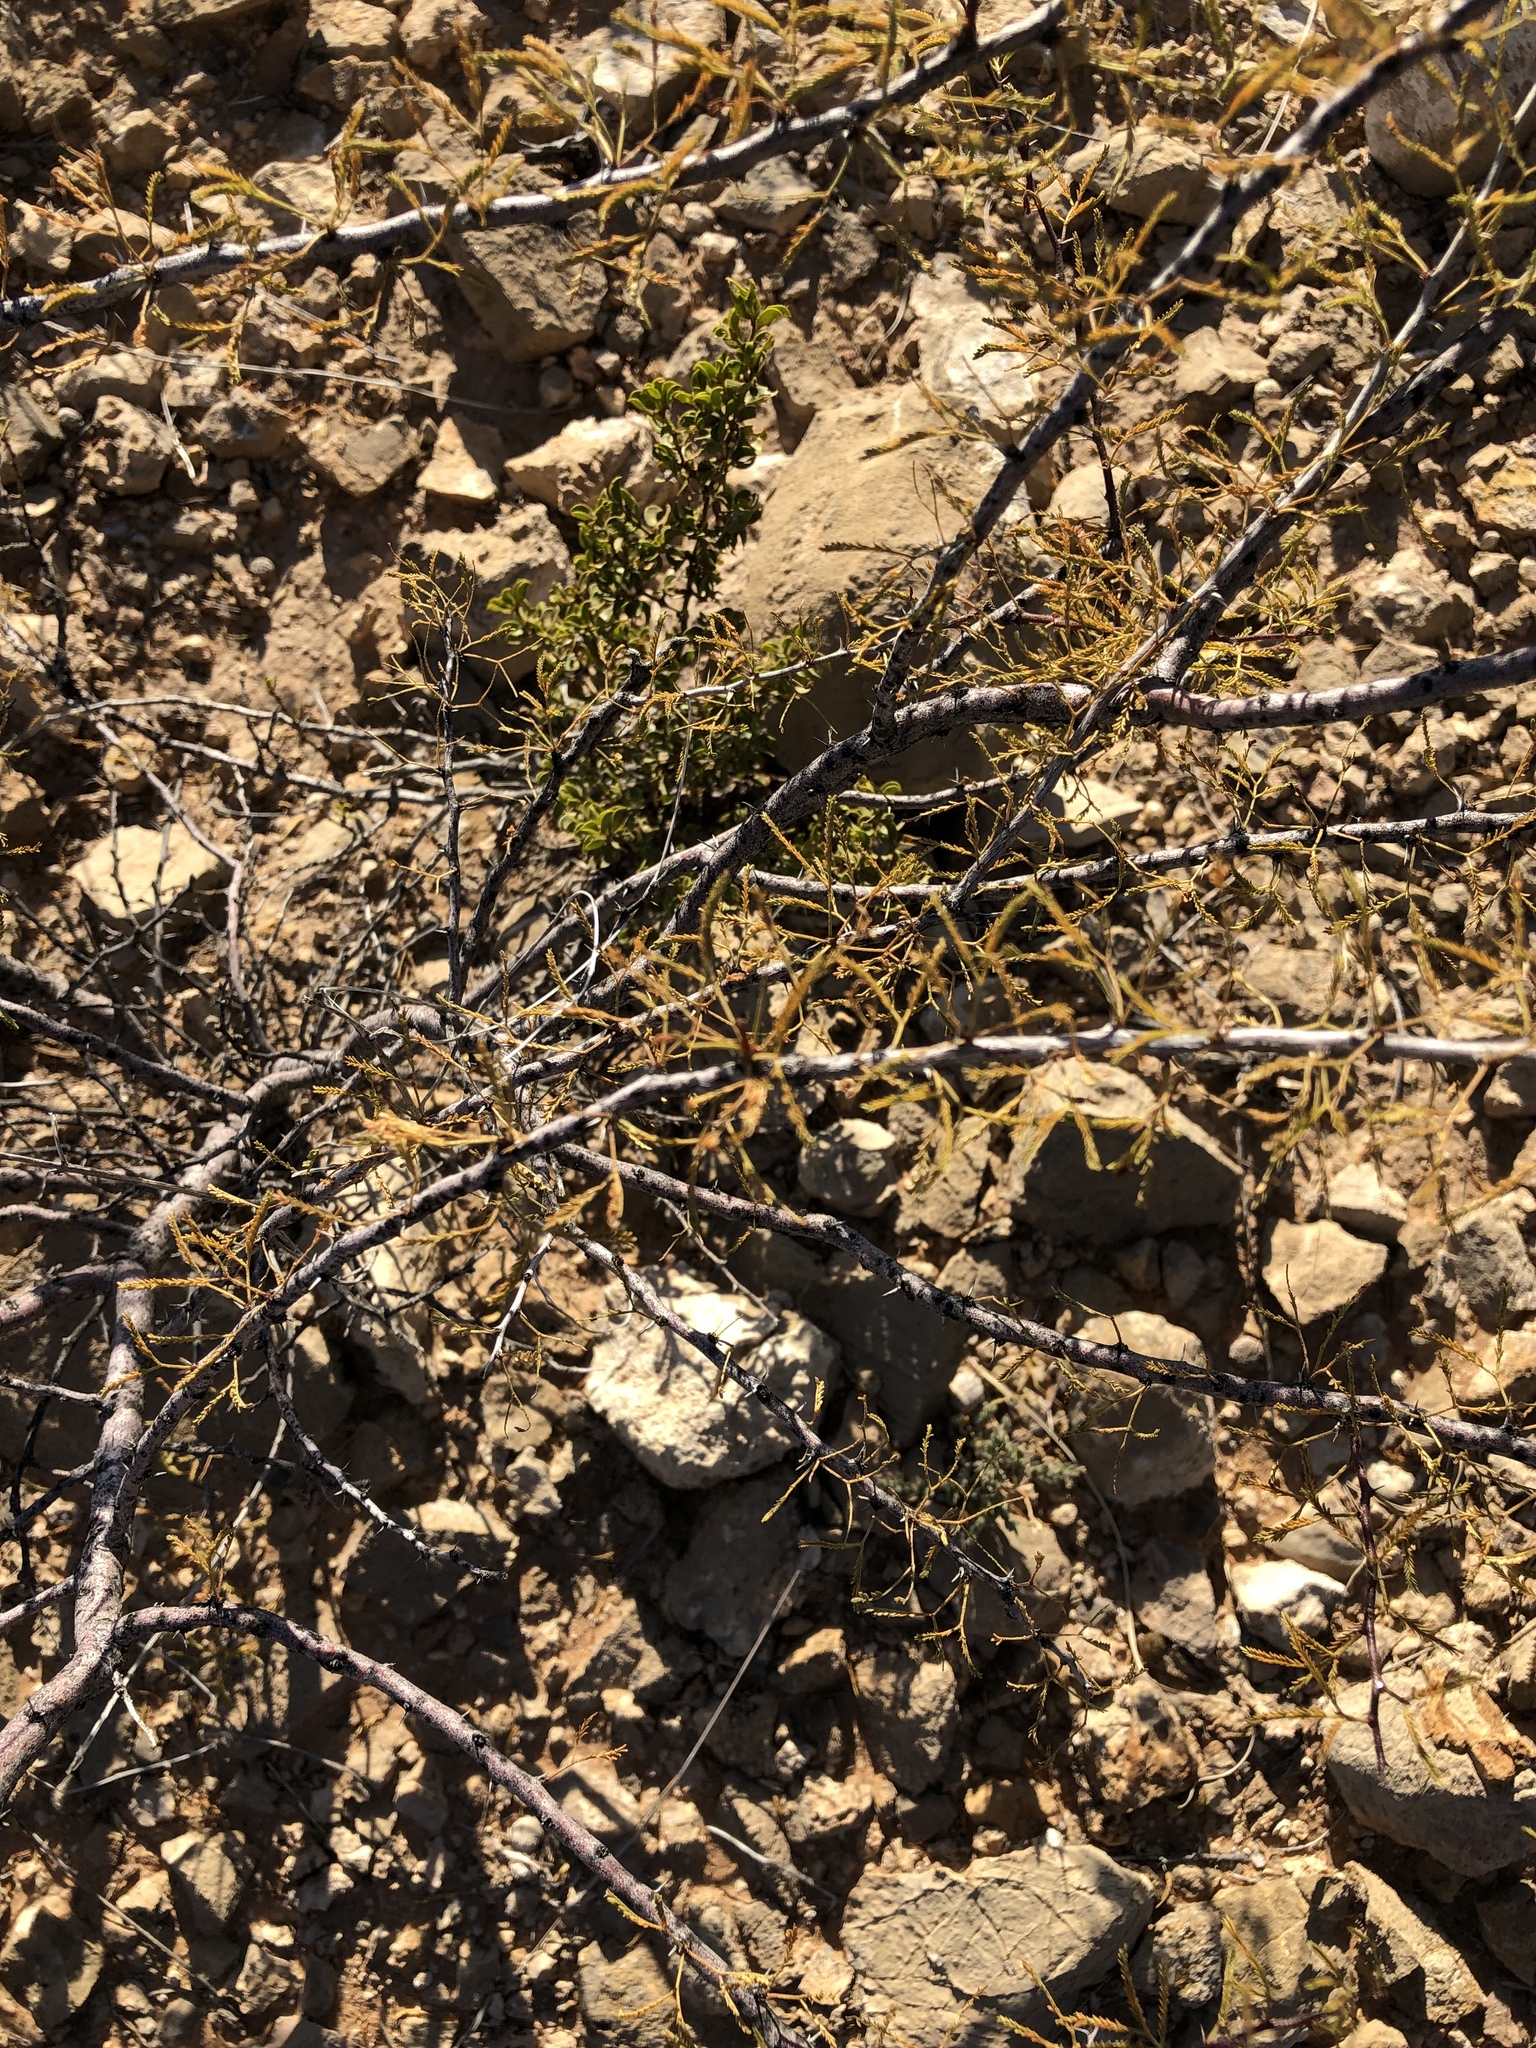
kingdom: Plantae
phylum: Tracheophyta
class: Magnoliopsida
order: Fabales
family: Fabaceae
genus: Vachellia
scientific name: Vachellia vernicosa
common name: Viscid acacia
